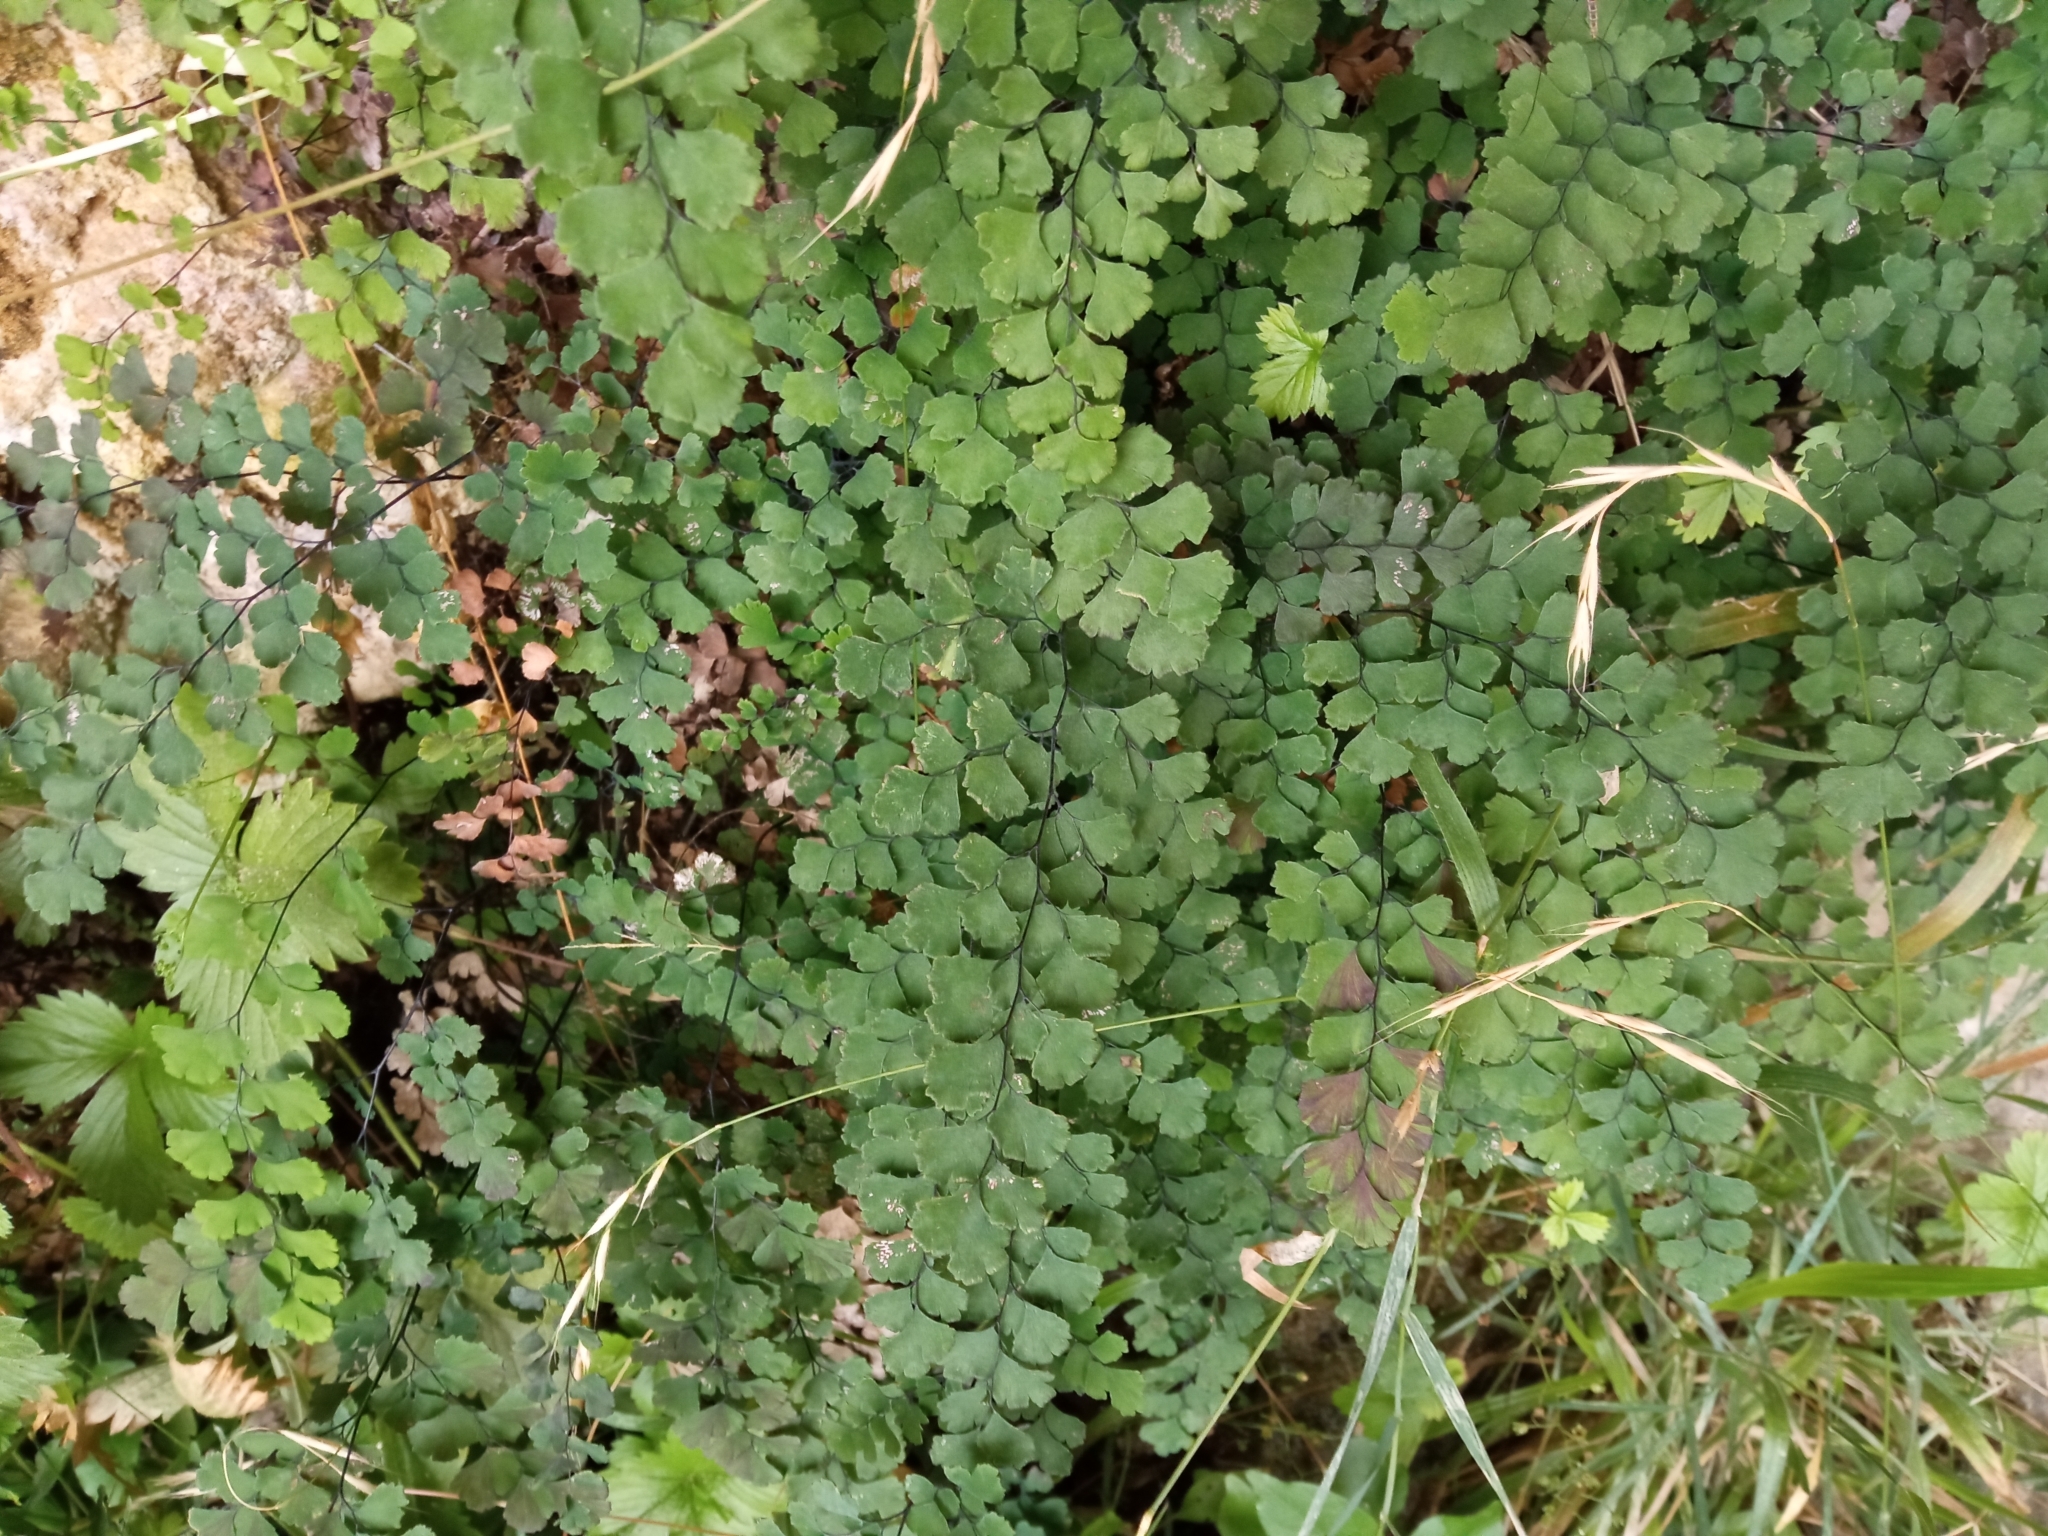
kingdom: Plantae
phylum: Tracheophyta
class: Polypodiopsida
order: Polypodiales
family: Pteridaceae
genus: Adiantum
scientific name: Adiantum capillus-veneris
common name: Maidenhair fern
